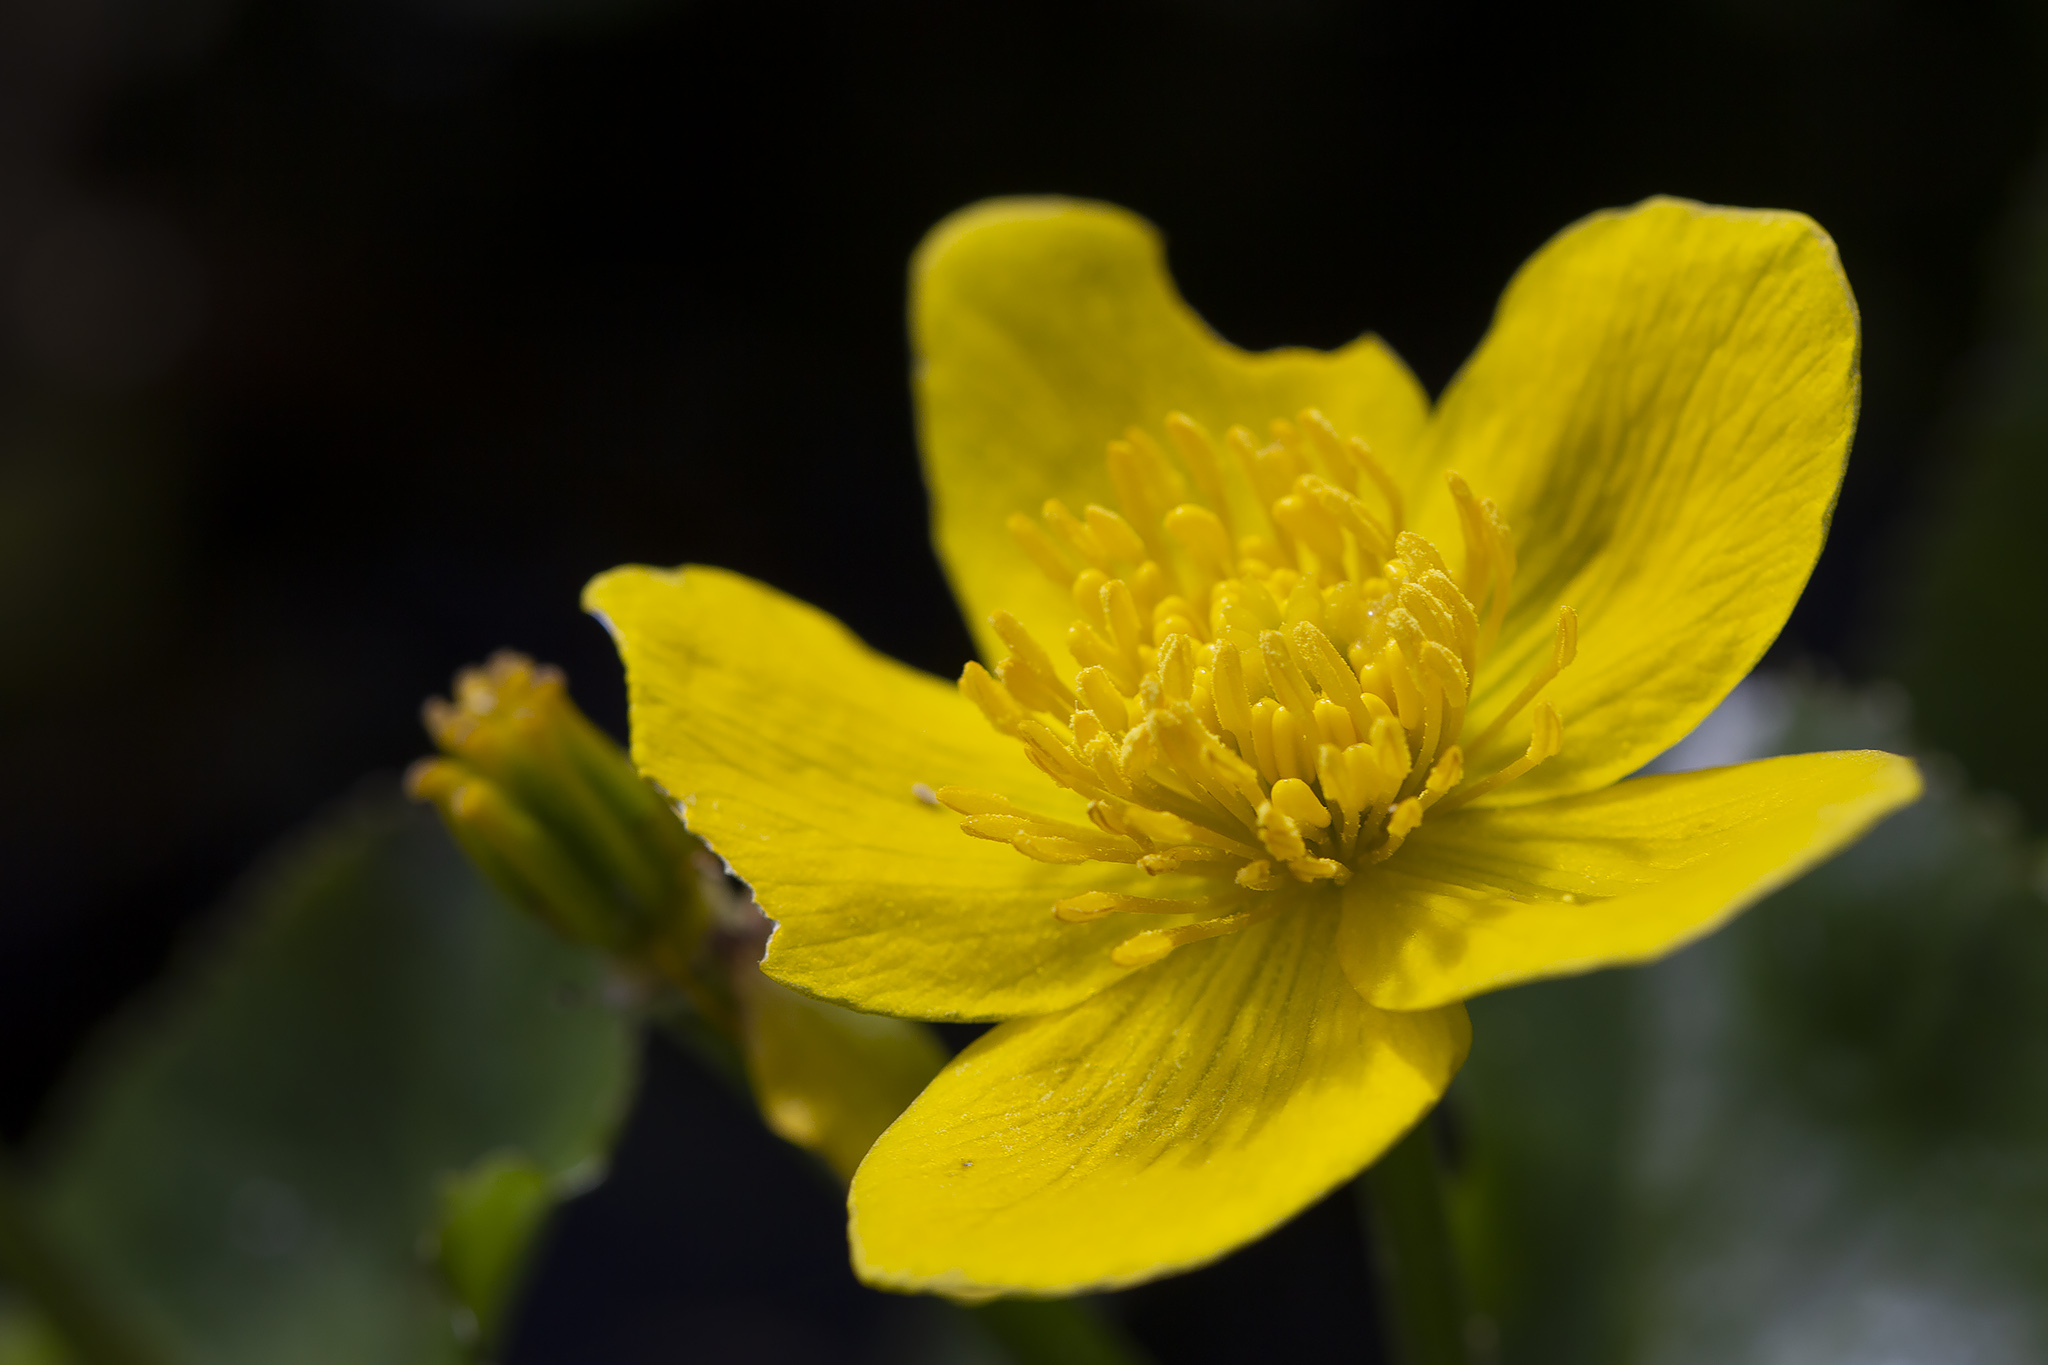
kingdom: Plantae
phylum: Tracheophyta
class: Magnoliopsida
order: Ranunculales
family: Ranunculaceae
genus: Caltha
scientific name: Caltha palustris
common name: Marsh marigold
